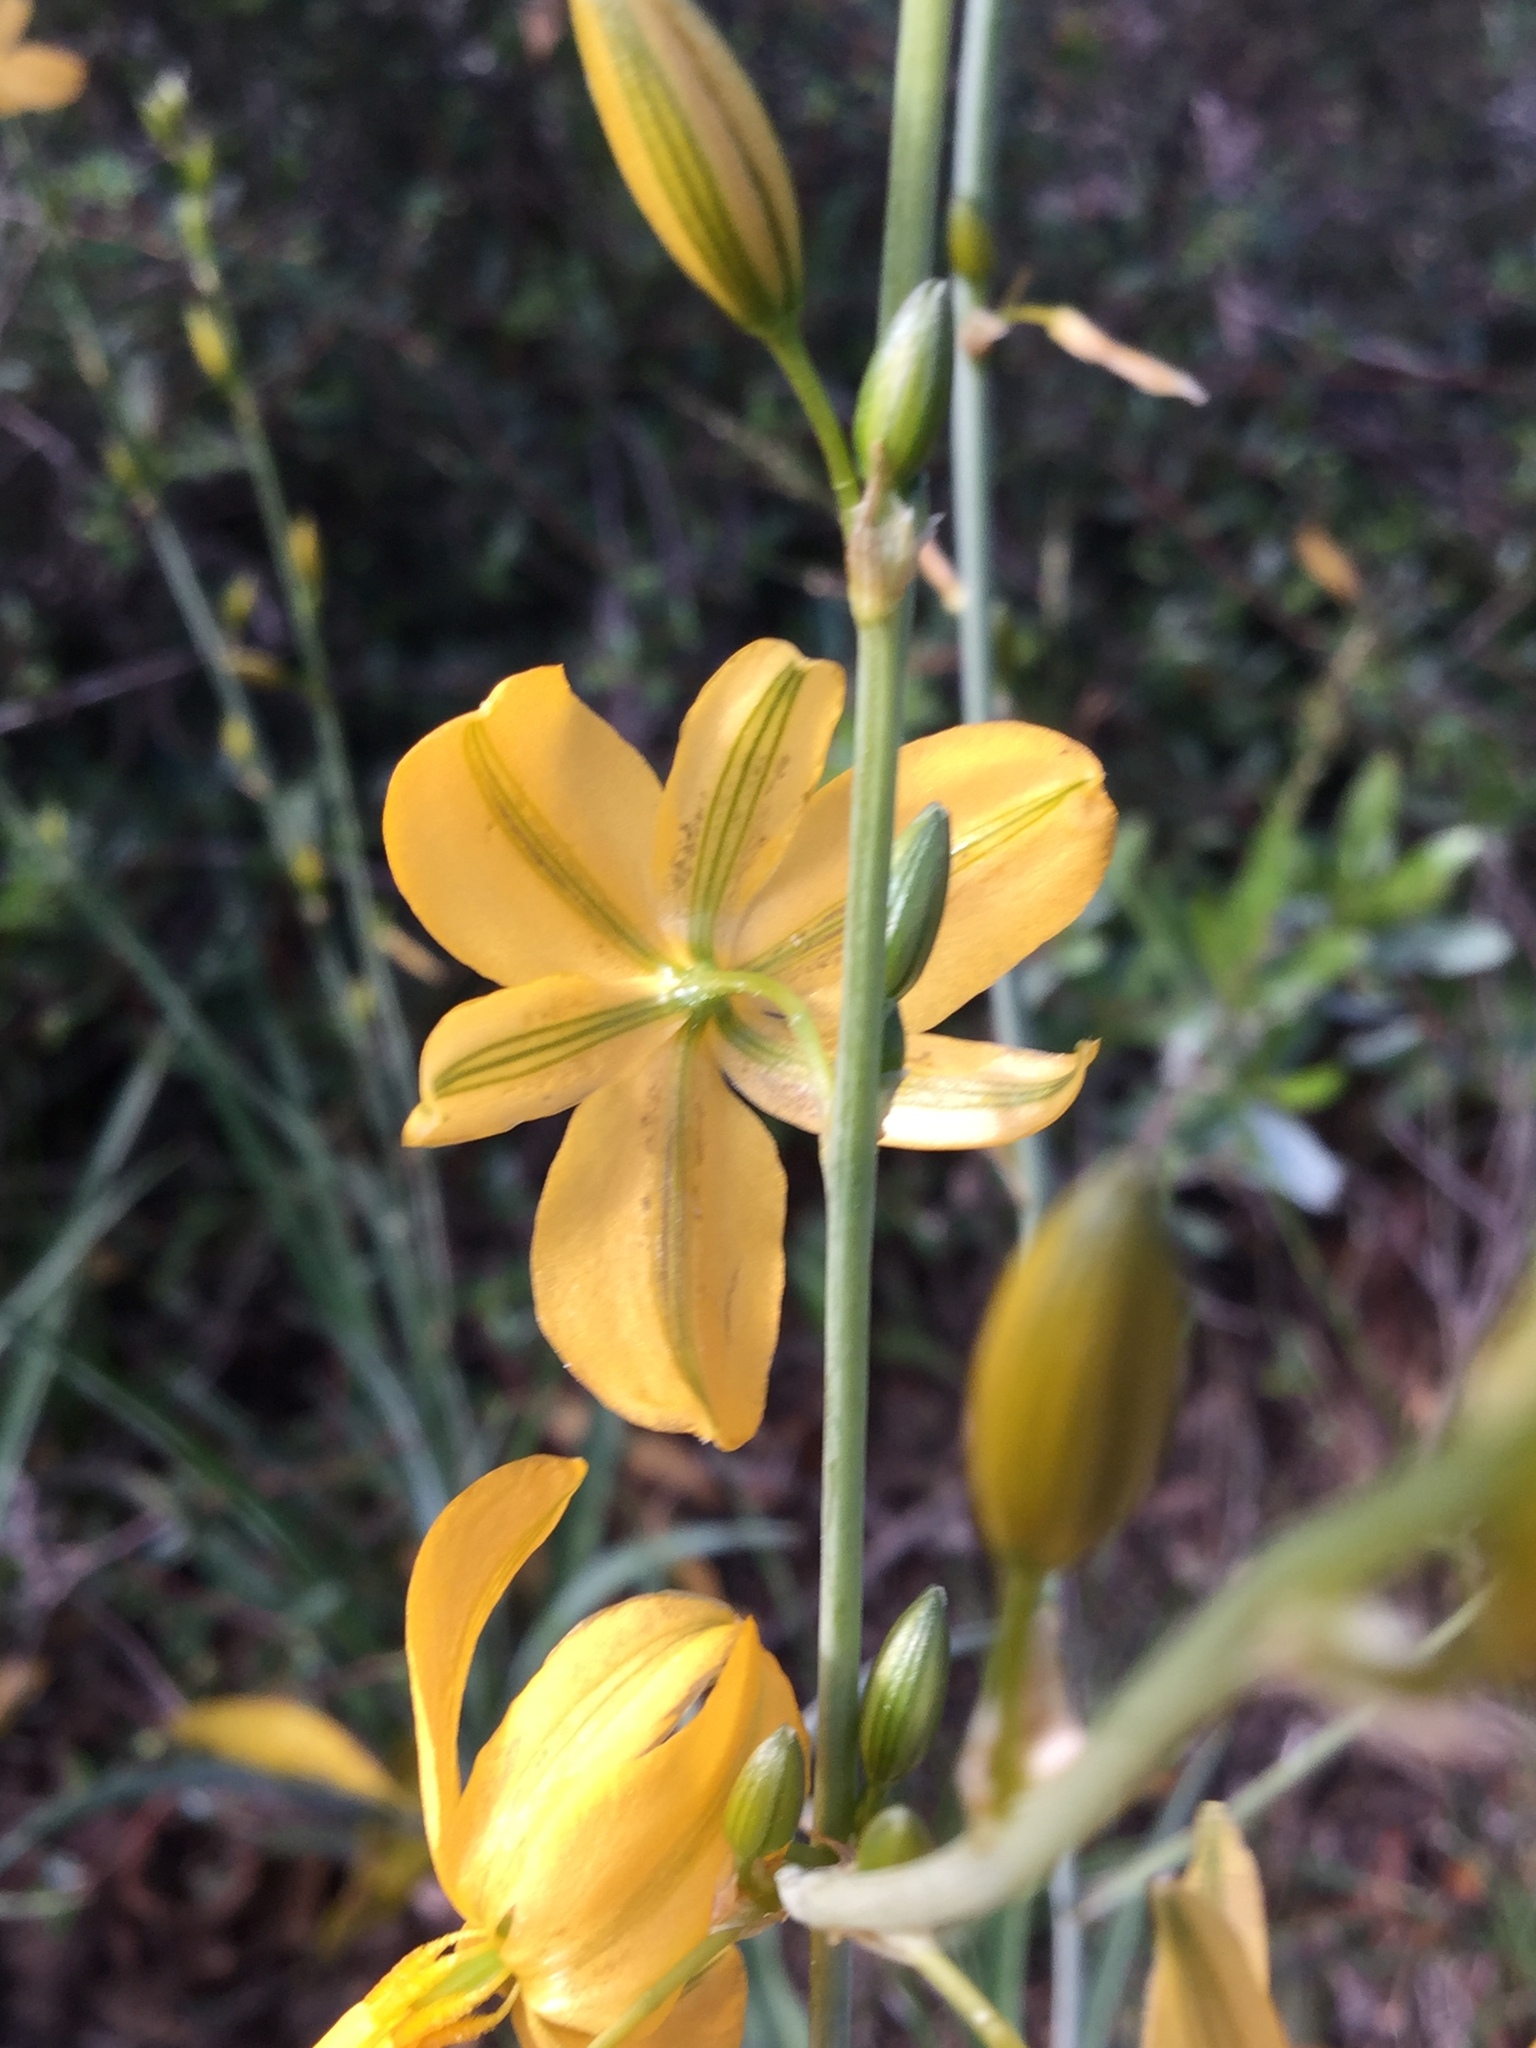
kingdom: Plantae
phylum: Tracheophyta
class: Liliopsida
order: Asparagales
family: Asparagaceae
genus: Echeandia
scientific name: Echeandia falcata
